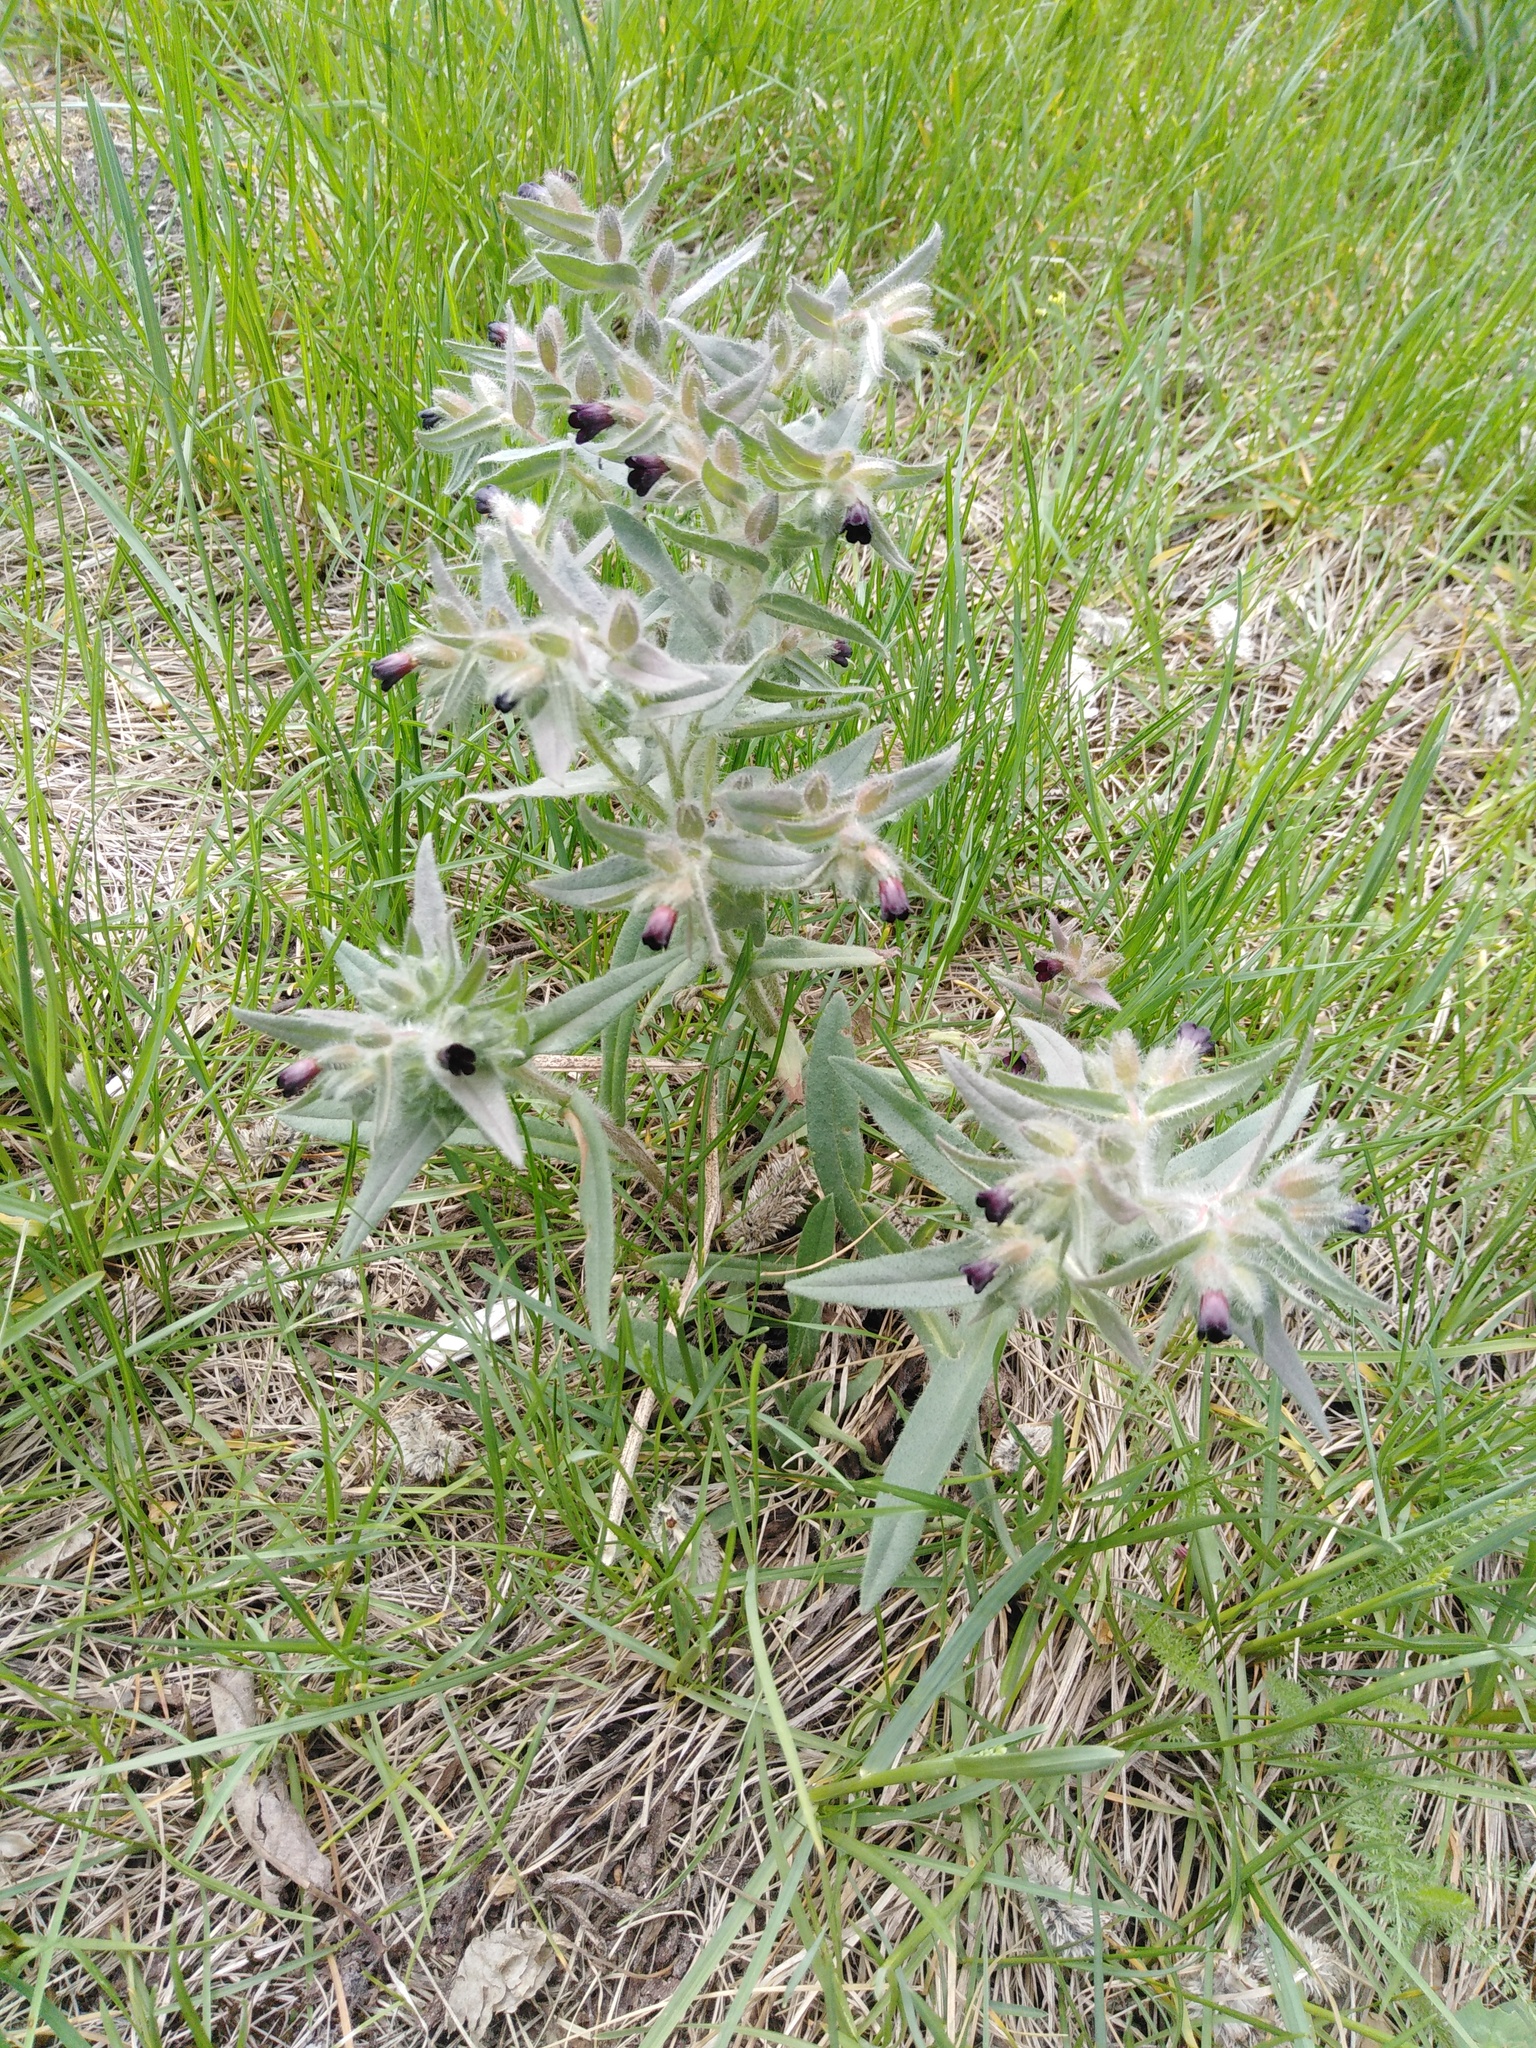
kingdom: Plantae
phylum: Tracheophyta
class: Magnoliopsida
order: Boraginales
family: Boraginaceae
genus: Nonea
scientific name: Nonea pulla
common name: Brown nonea
